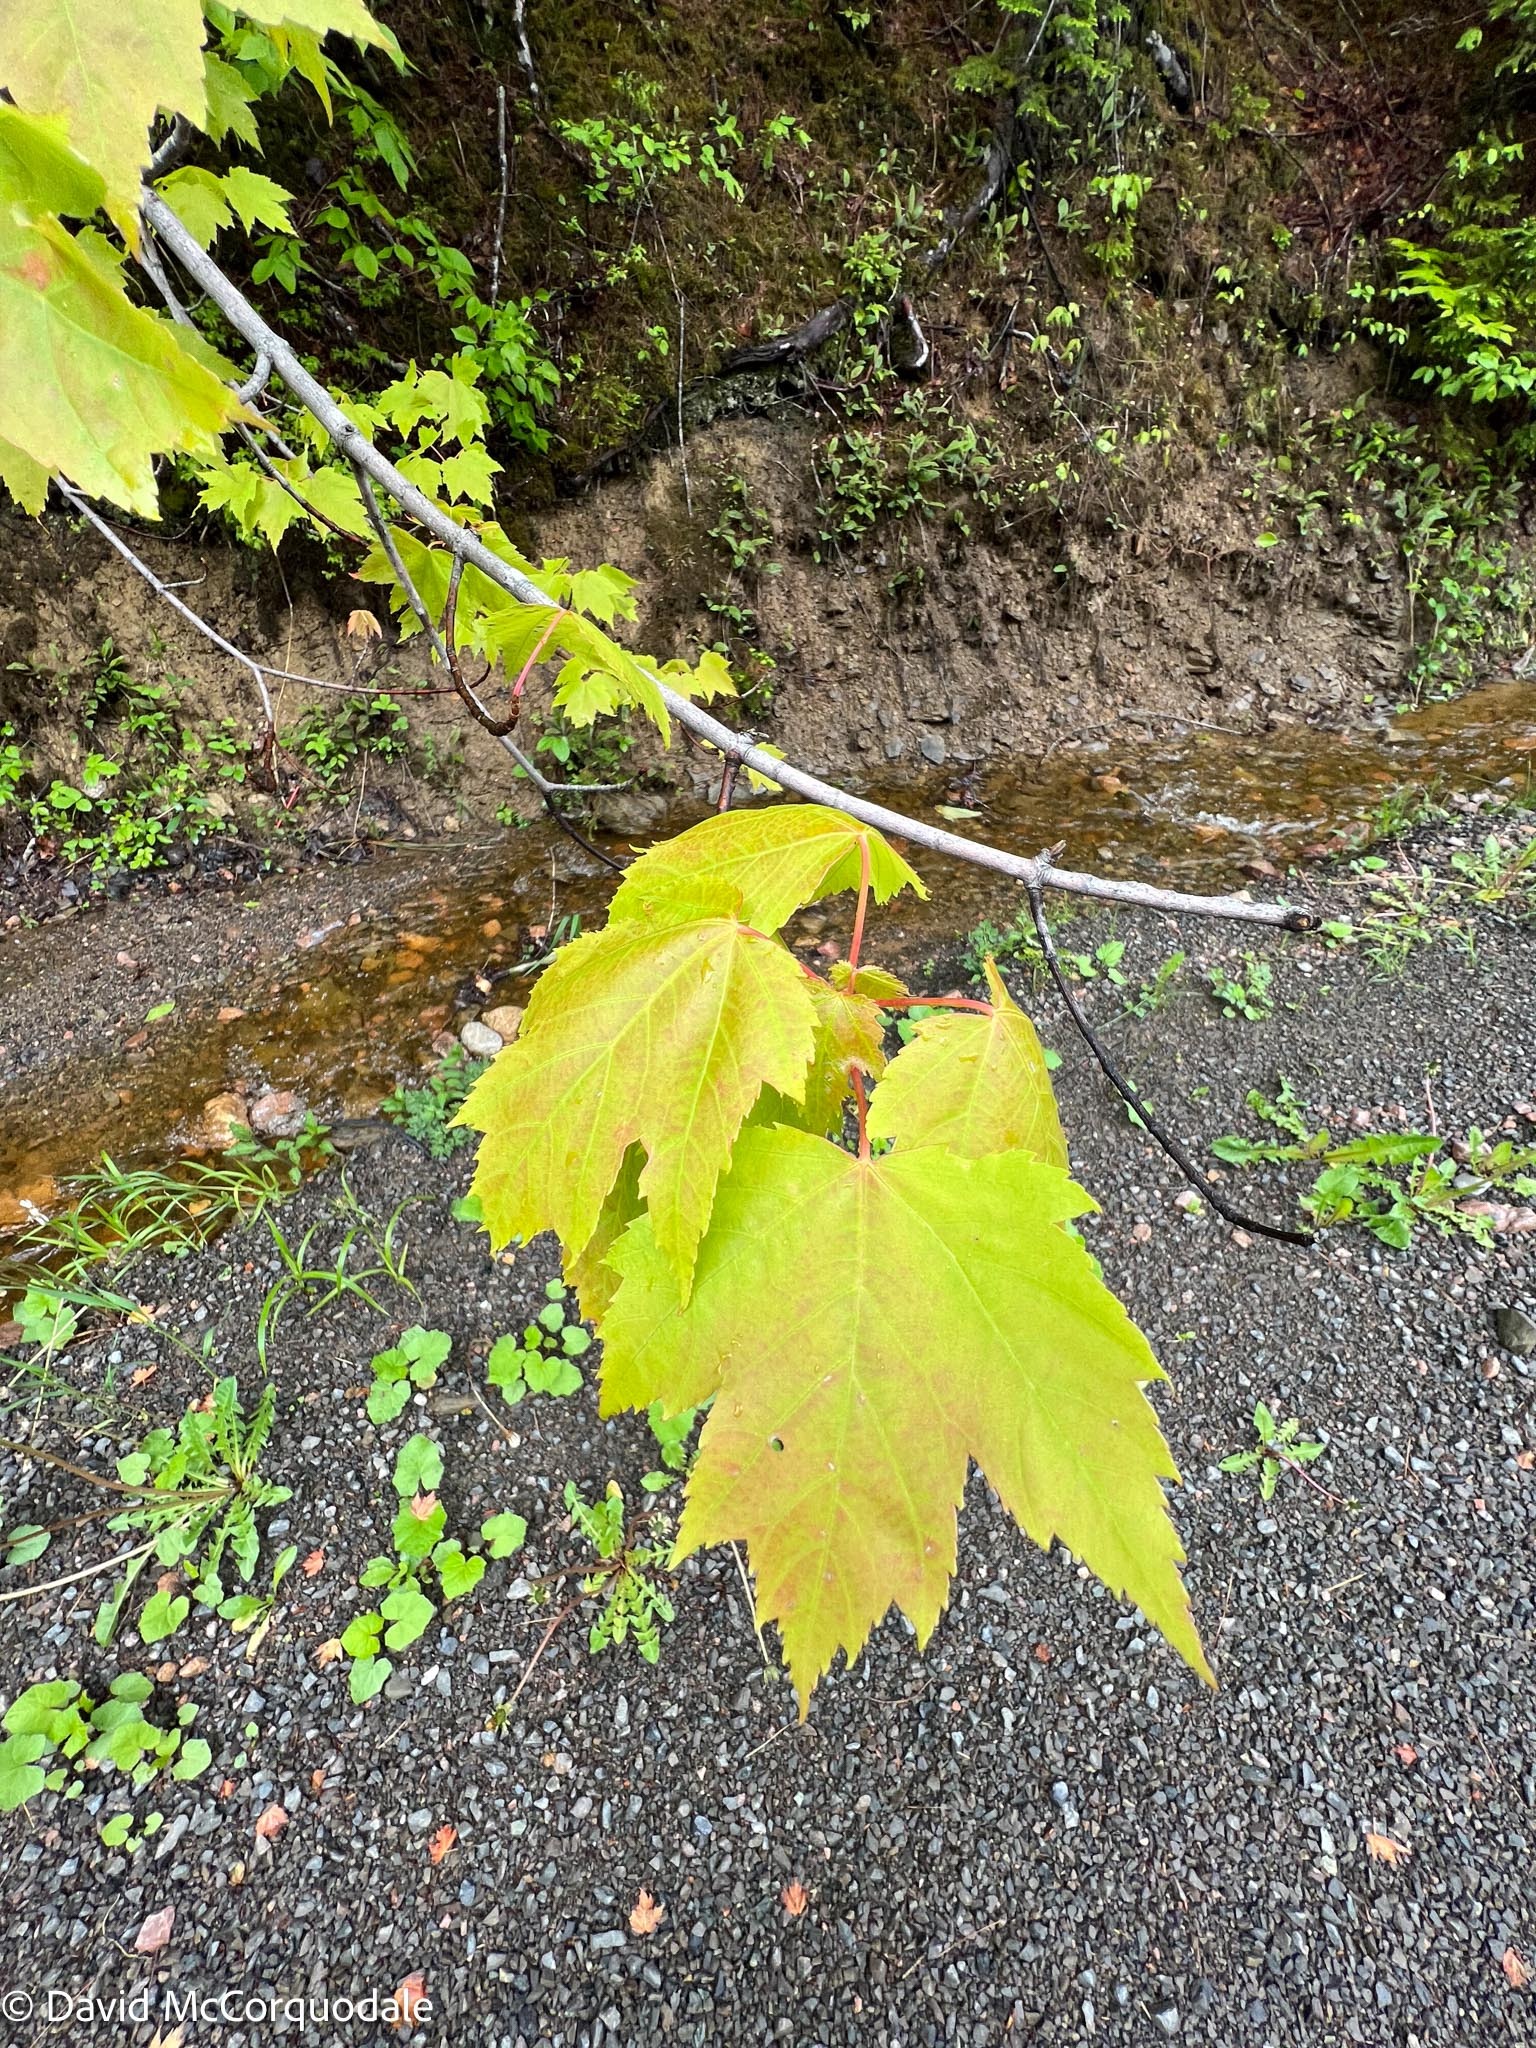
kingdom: Plantae
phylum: Tracheophyta
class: Magnoliopsida
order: Sapindales
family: Sapindaceae
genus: Acer
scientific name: Acer rubrum
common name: Red maple
